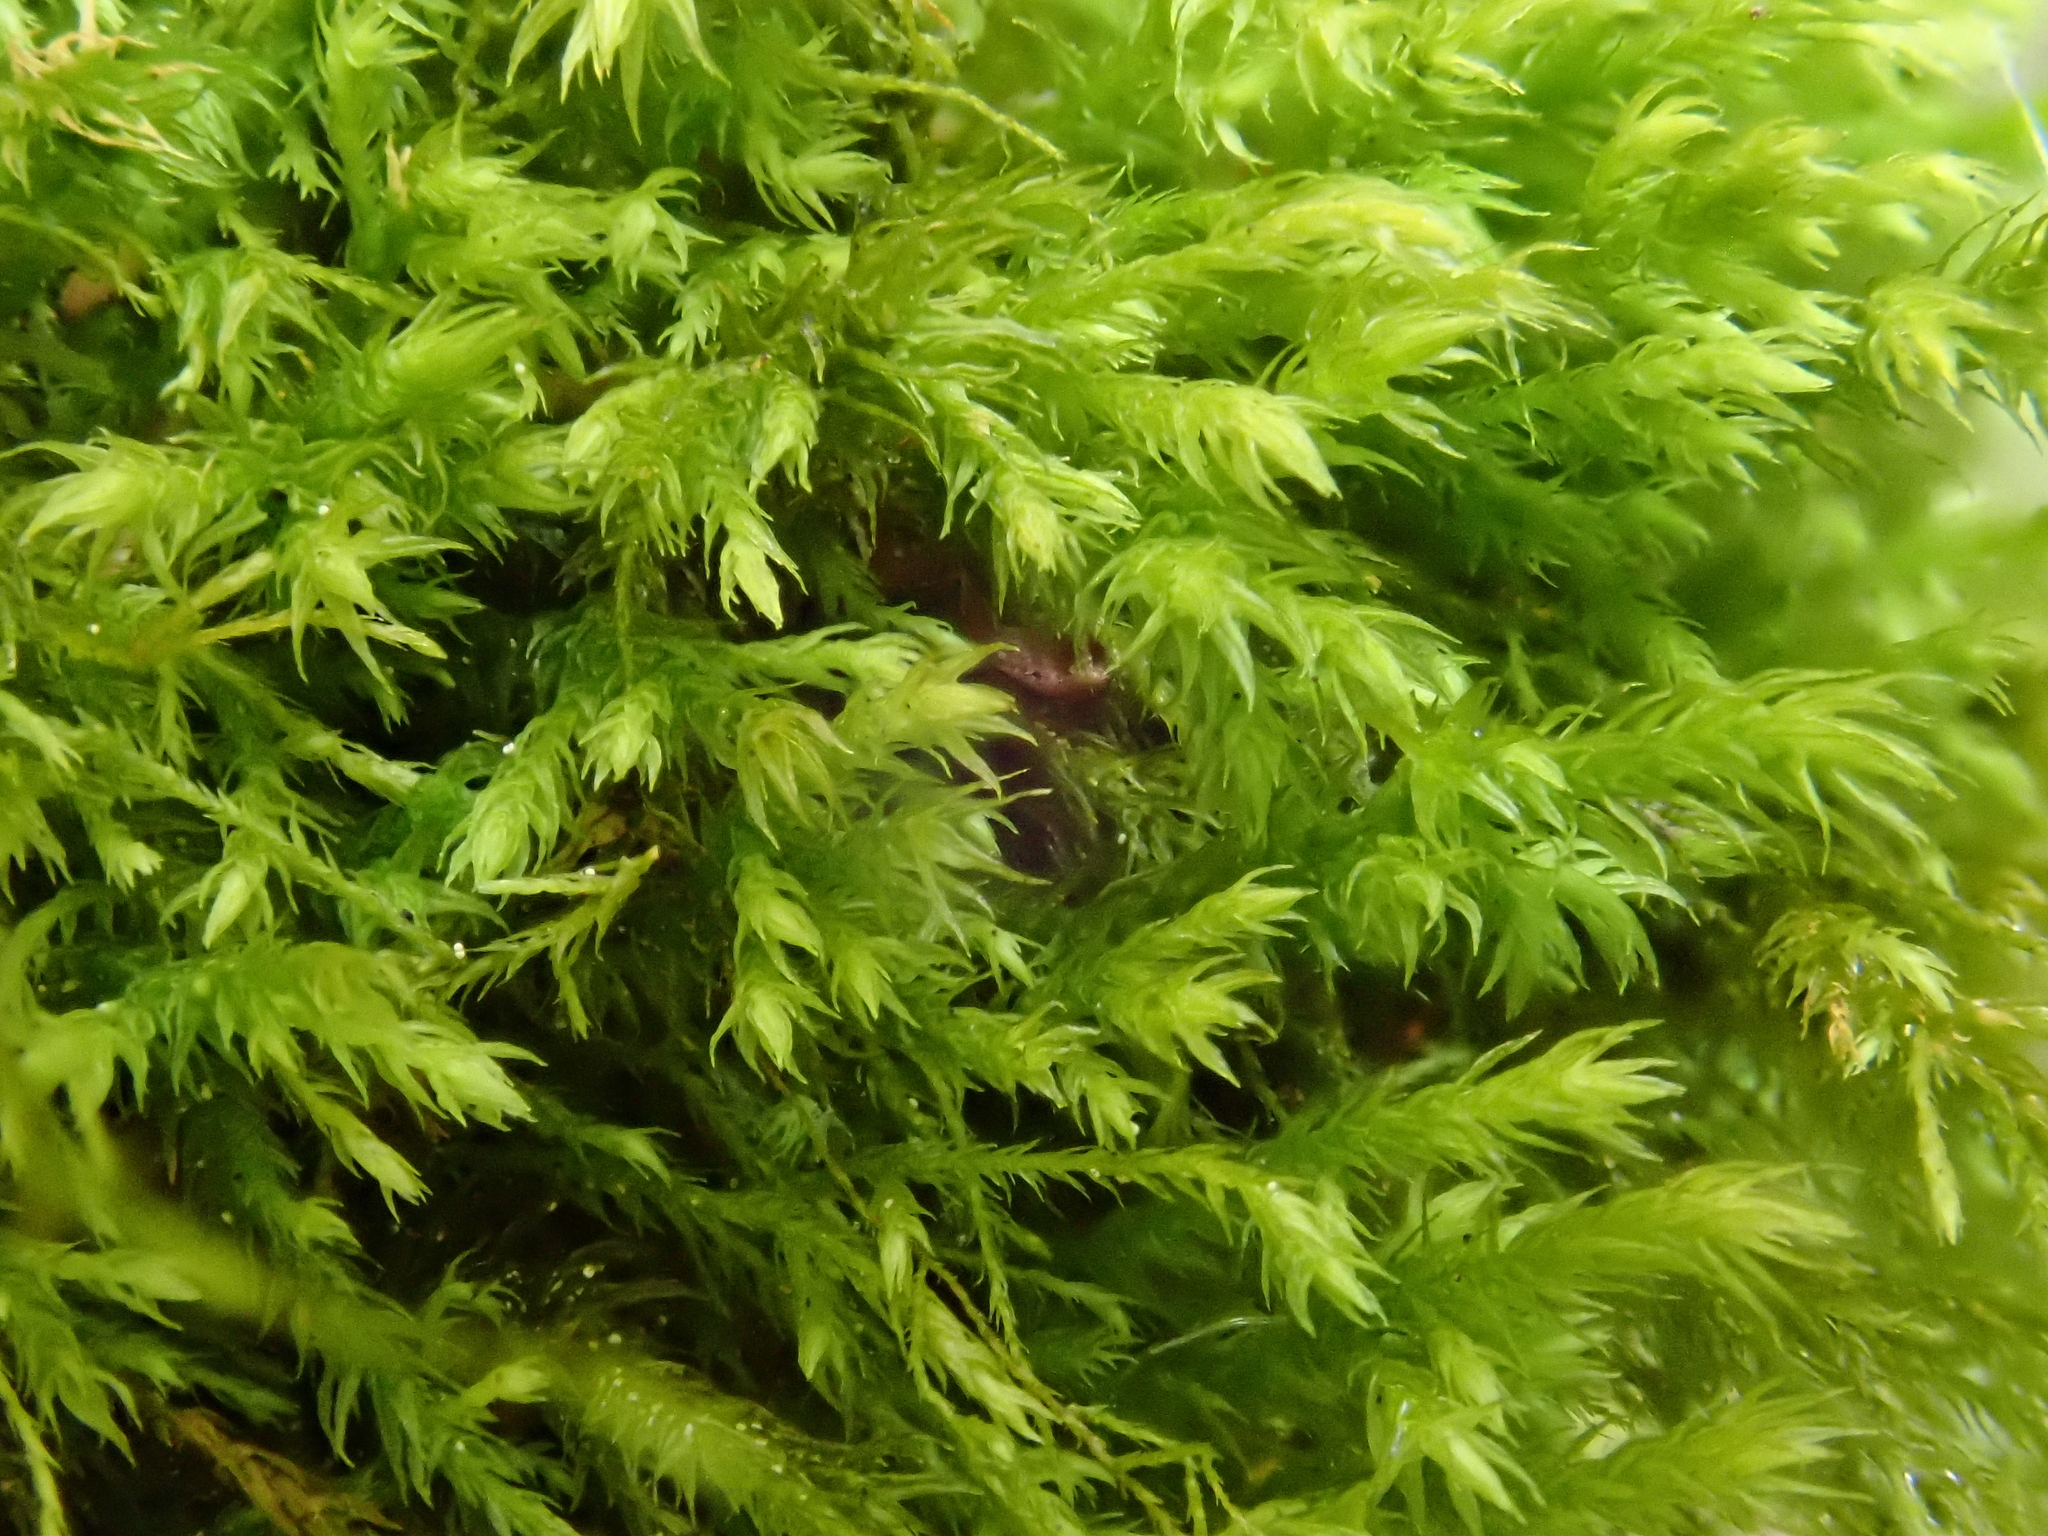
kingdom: Plantae
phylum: Bryophyta
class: Bryopsida
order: Hypnales
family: Anomodontaceae
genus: Anomodontella
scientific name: Anomodontella longifolia
